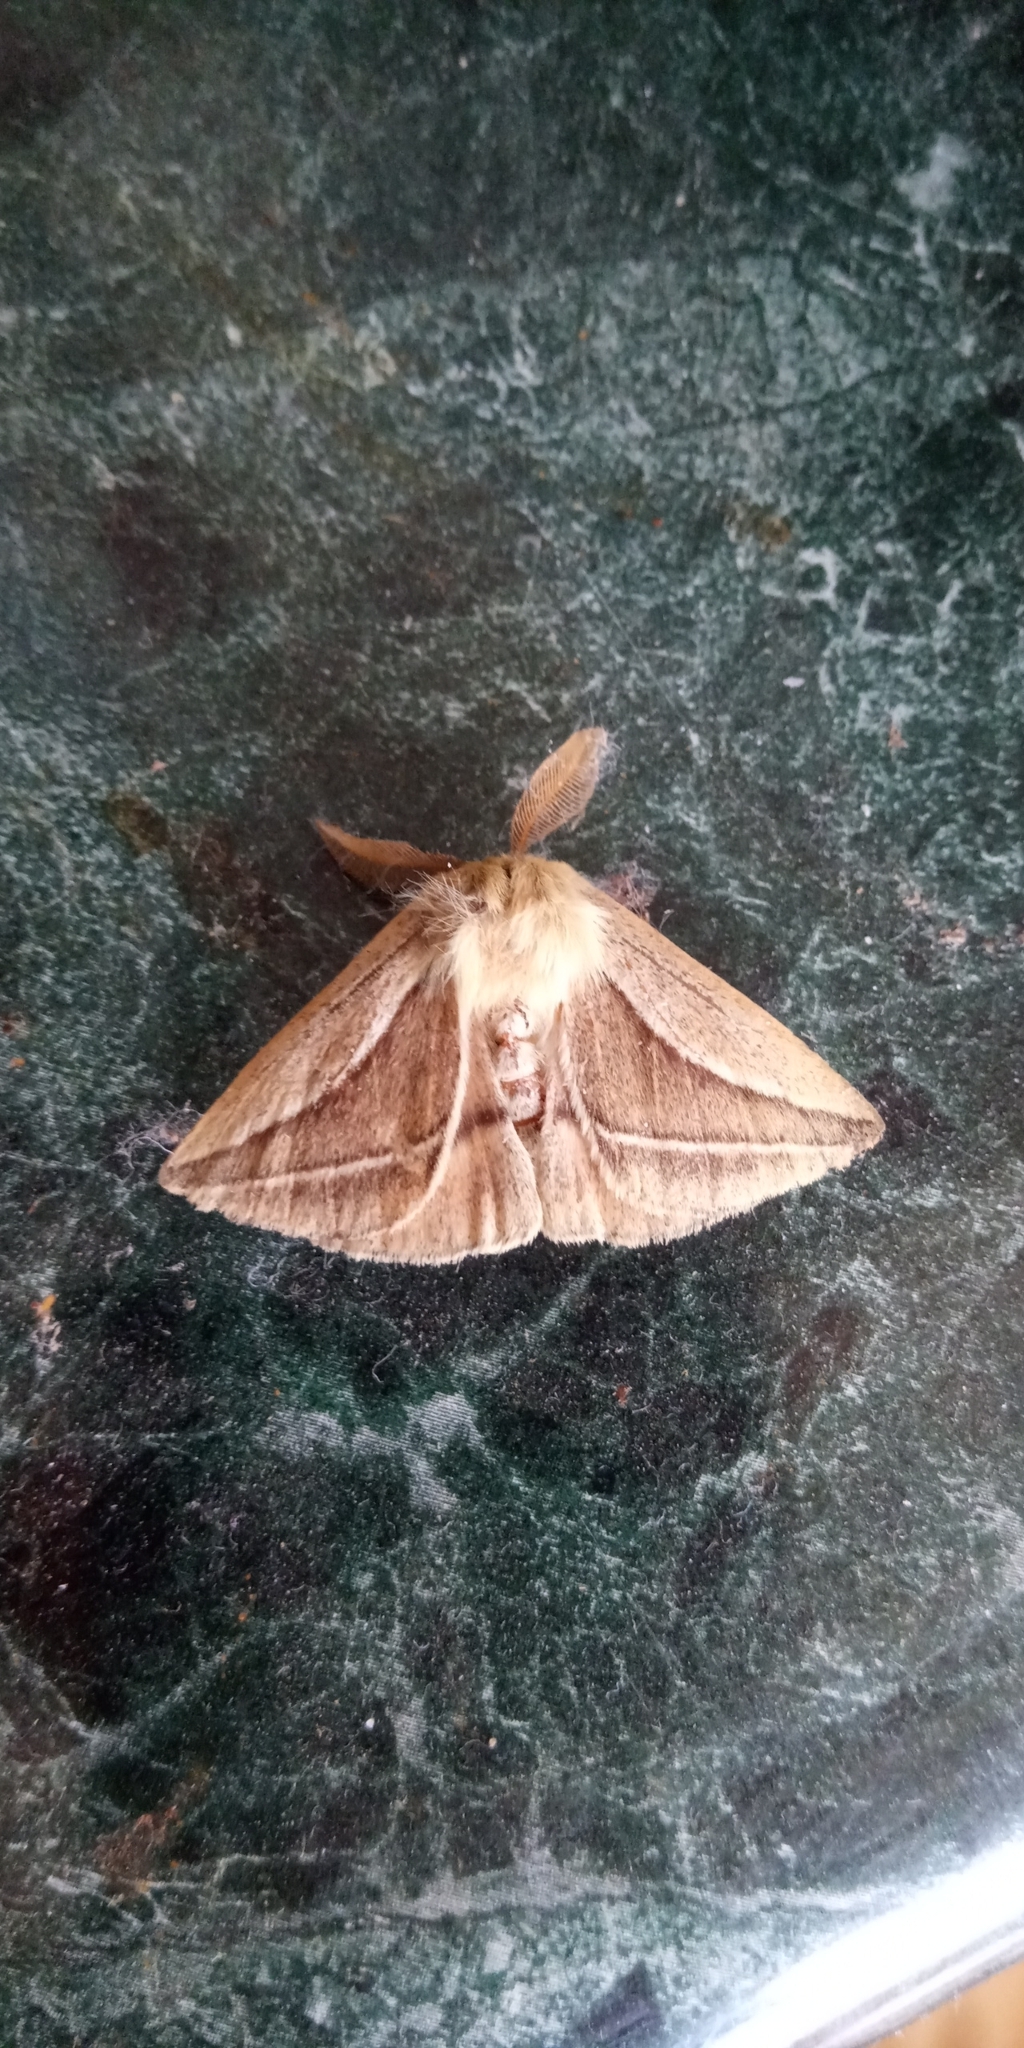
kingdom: Animalia
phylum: Arthropoda
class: Insecta
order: Lepidoptera
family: Saturniidae
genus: Cinommata
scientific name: Cinommata bistrigata
